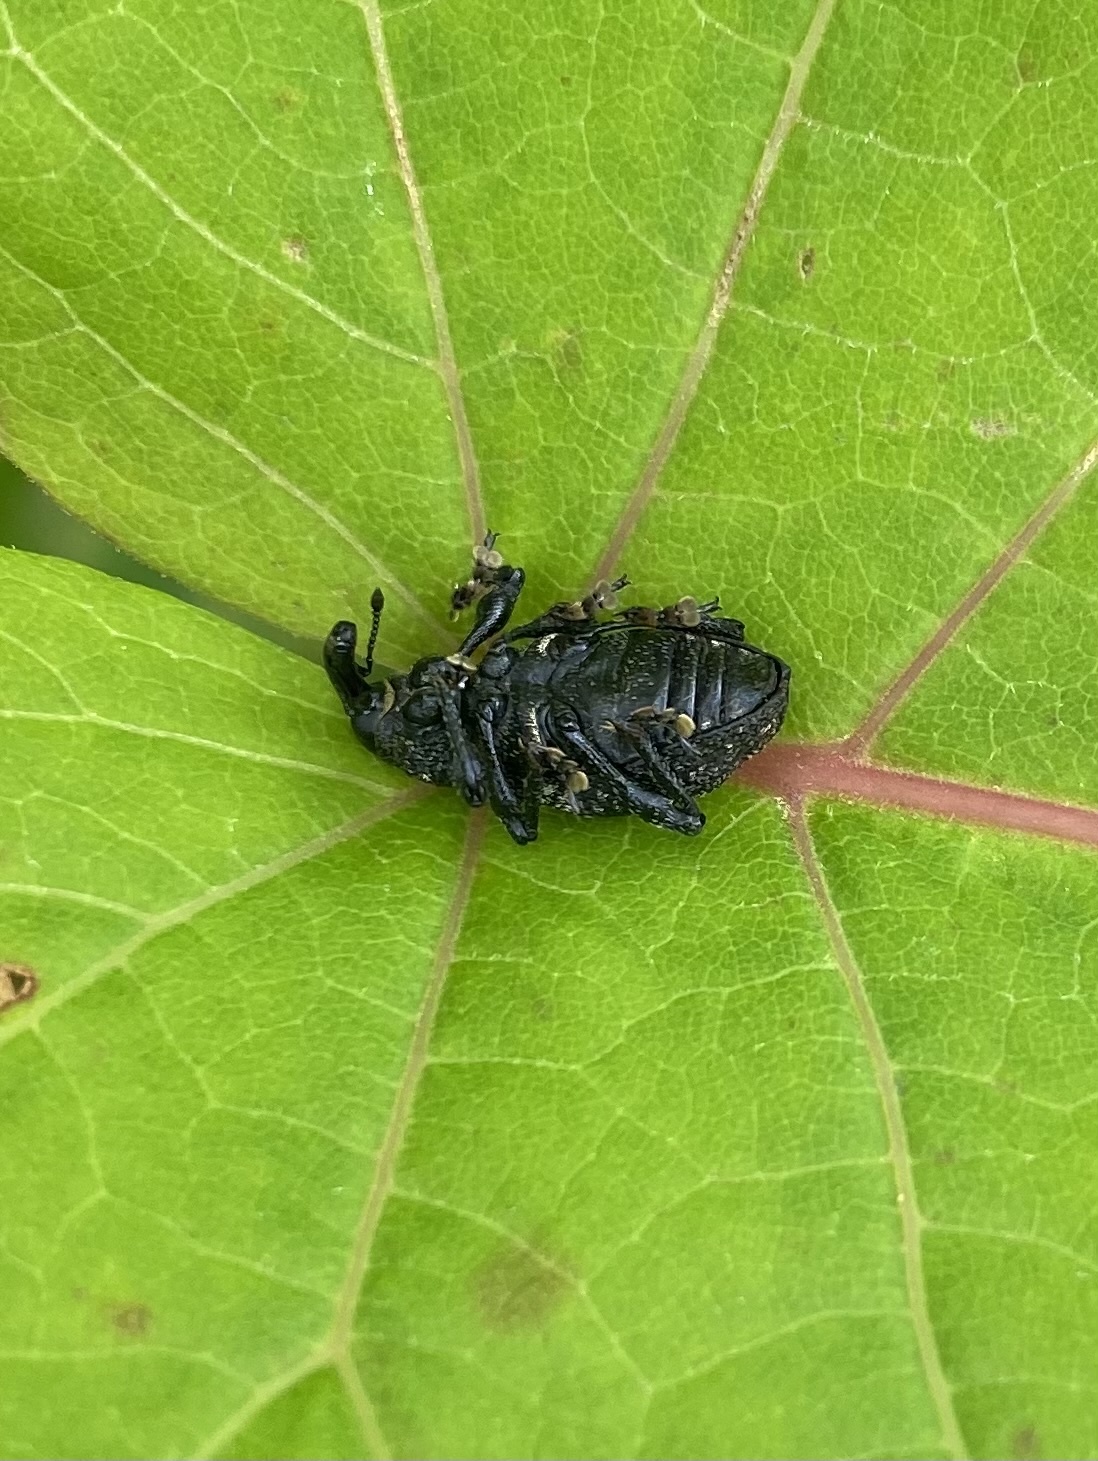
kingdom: Animalia
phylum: Arthropoda
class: Insecta
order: Coleoptera
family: Curculionidae
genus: Pimelocerus
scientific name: Pimelocerus orientalis
